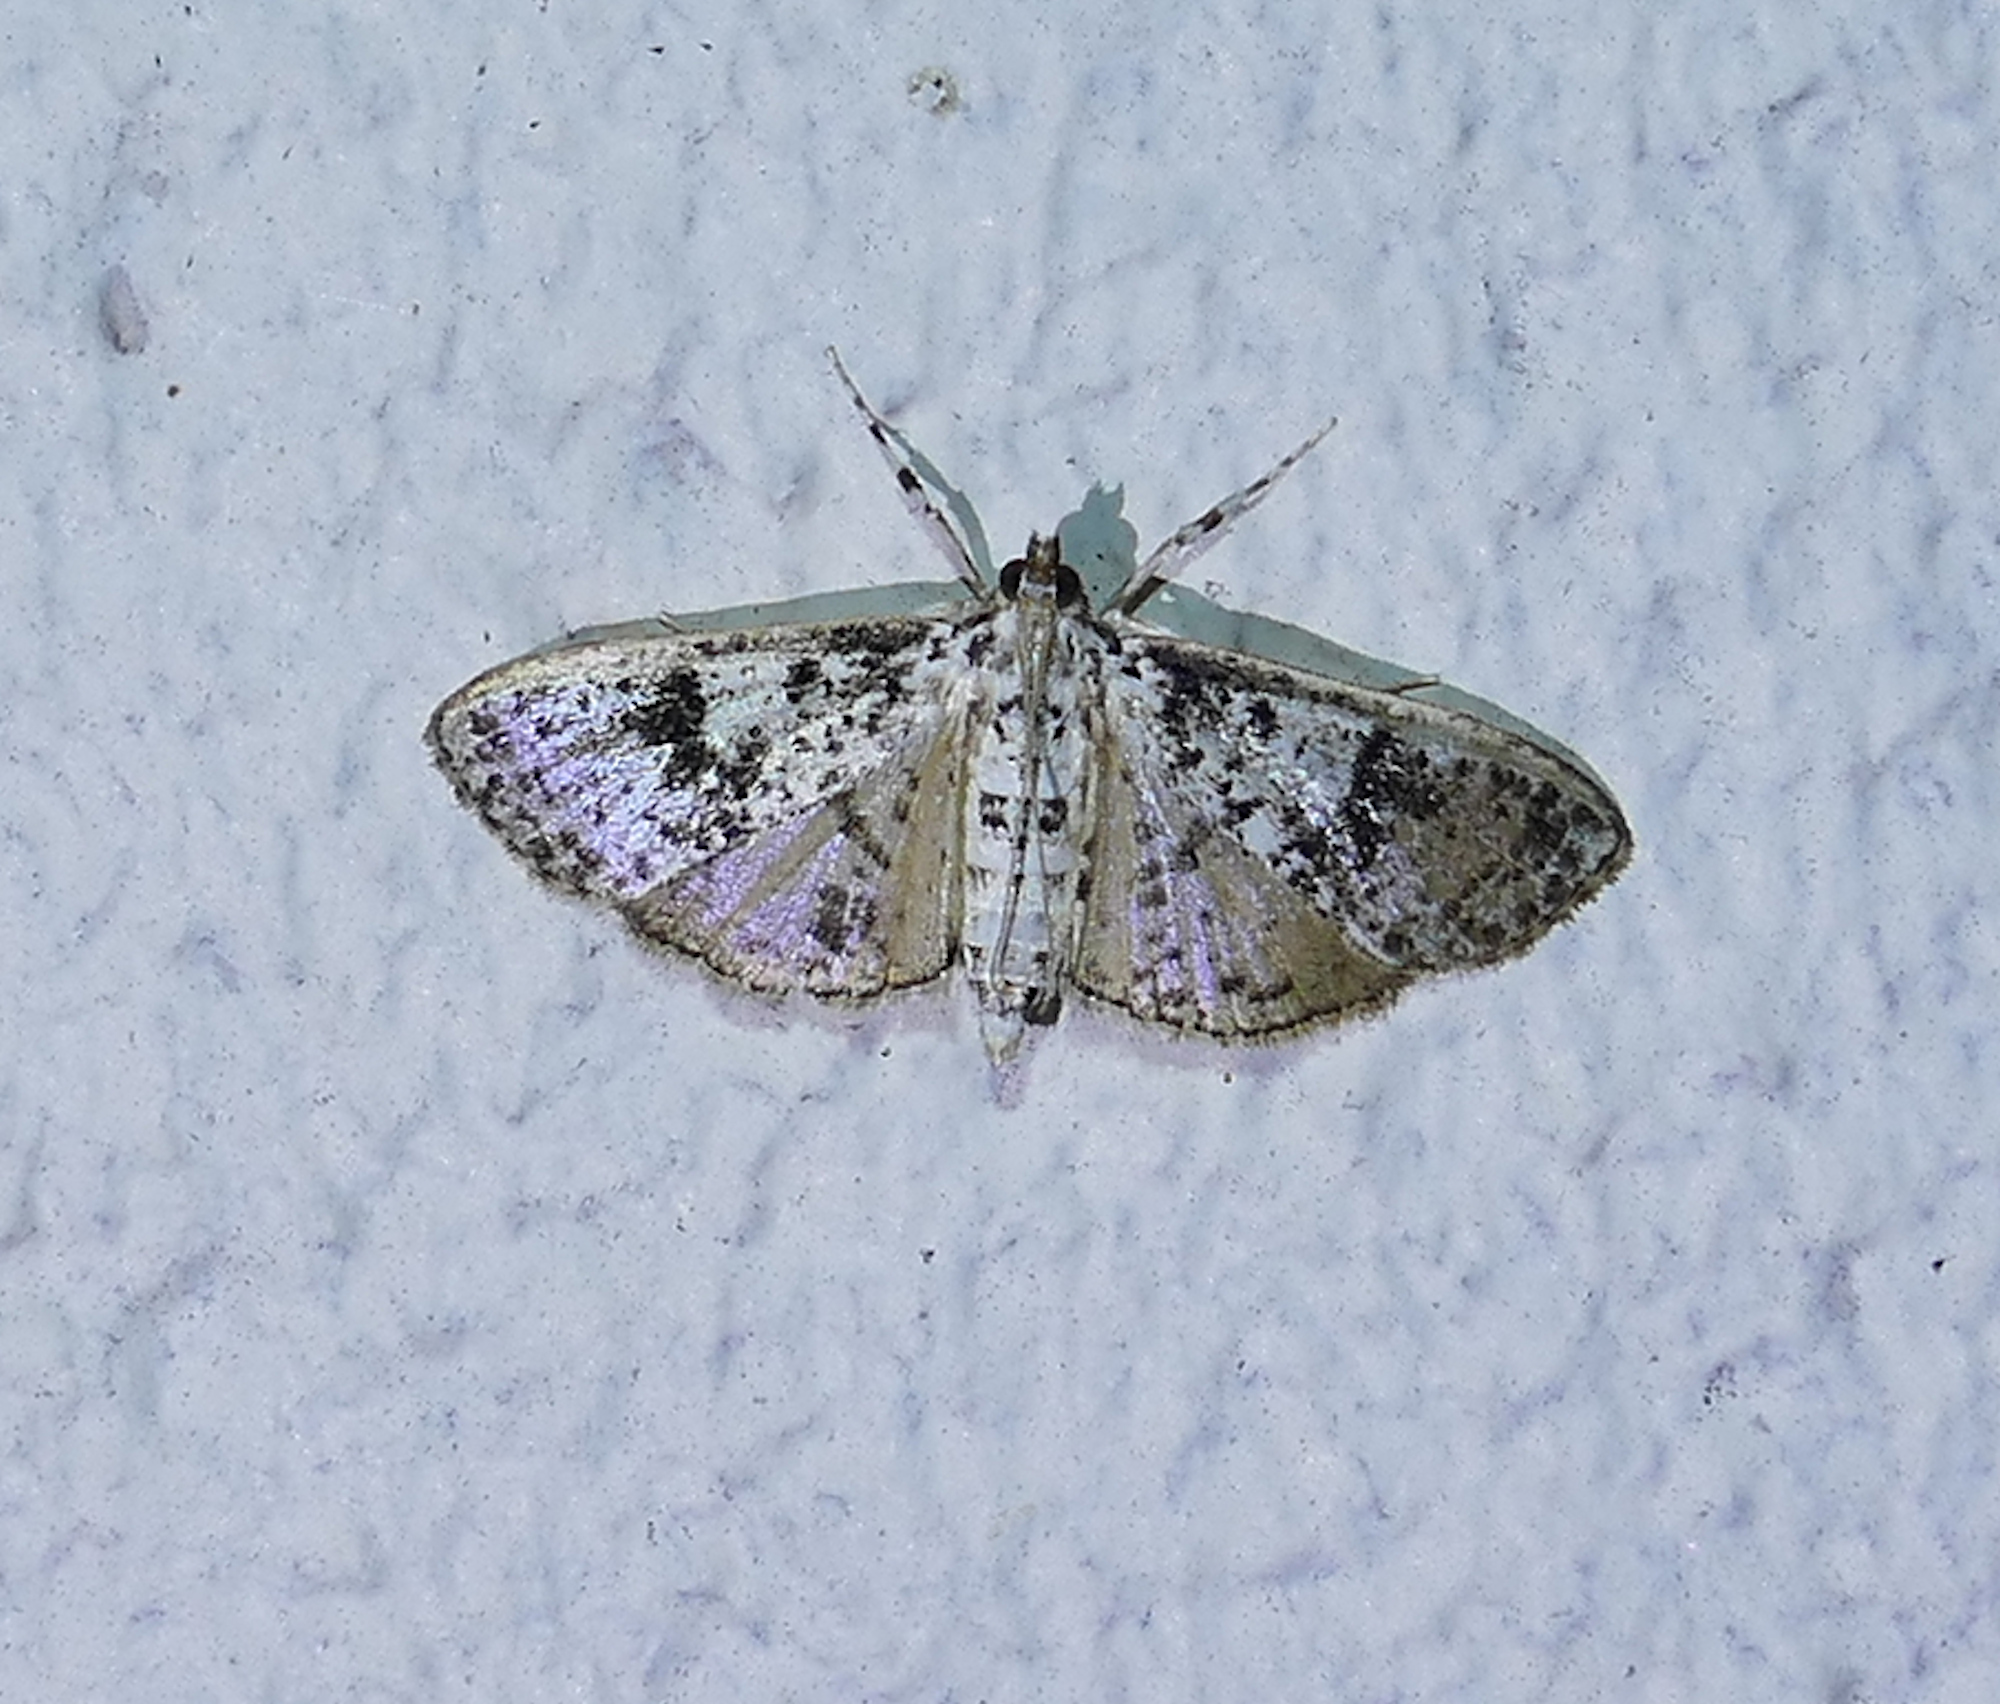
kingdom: Animalia
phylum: Arthropoda
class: Insecta
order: Lepidoptera
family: Crambidae
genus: Palpita
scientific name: Palpita magniferalis
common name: Splendid palpita moth
